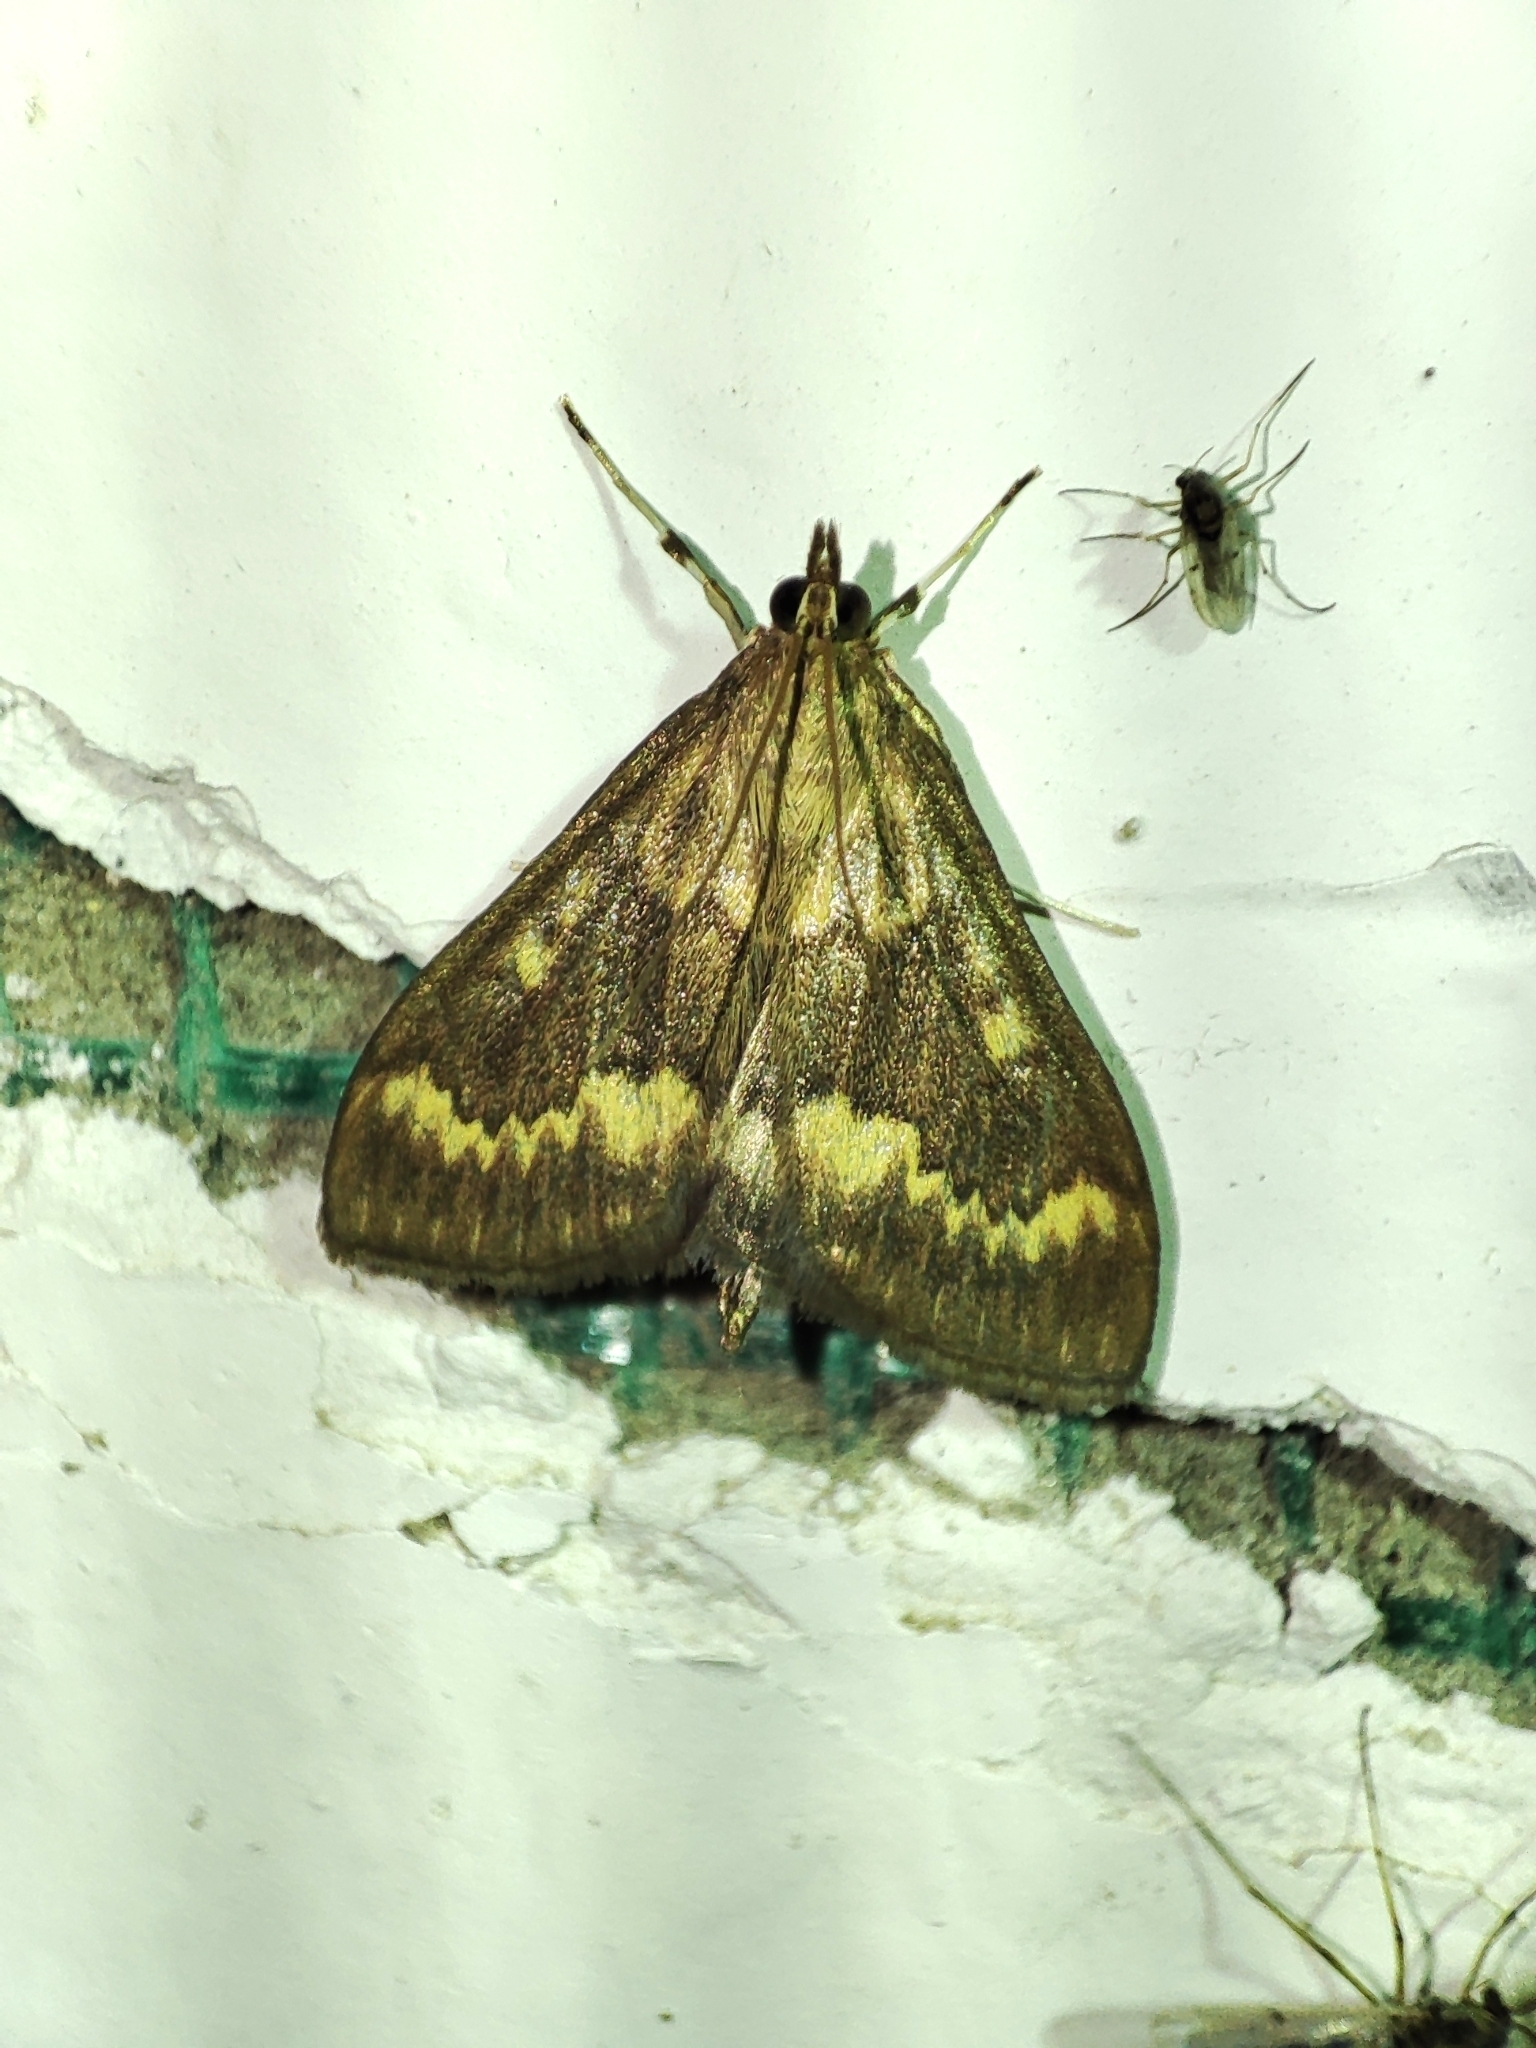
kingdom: Animalia
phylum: Arthropoda
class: Insecta
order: Lepidoptera
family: Crambidae
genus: Ostrinia
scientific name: Ostrinia scapulalis
